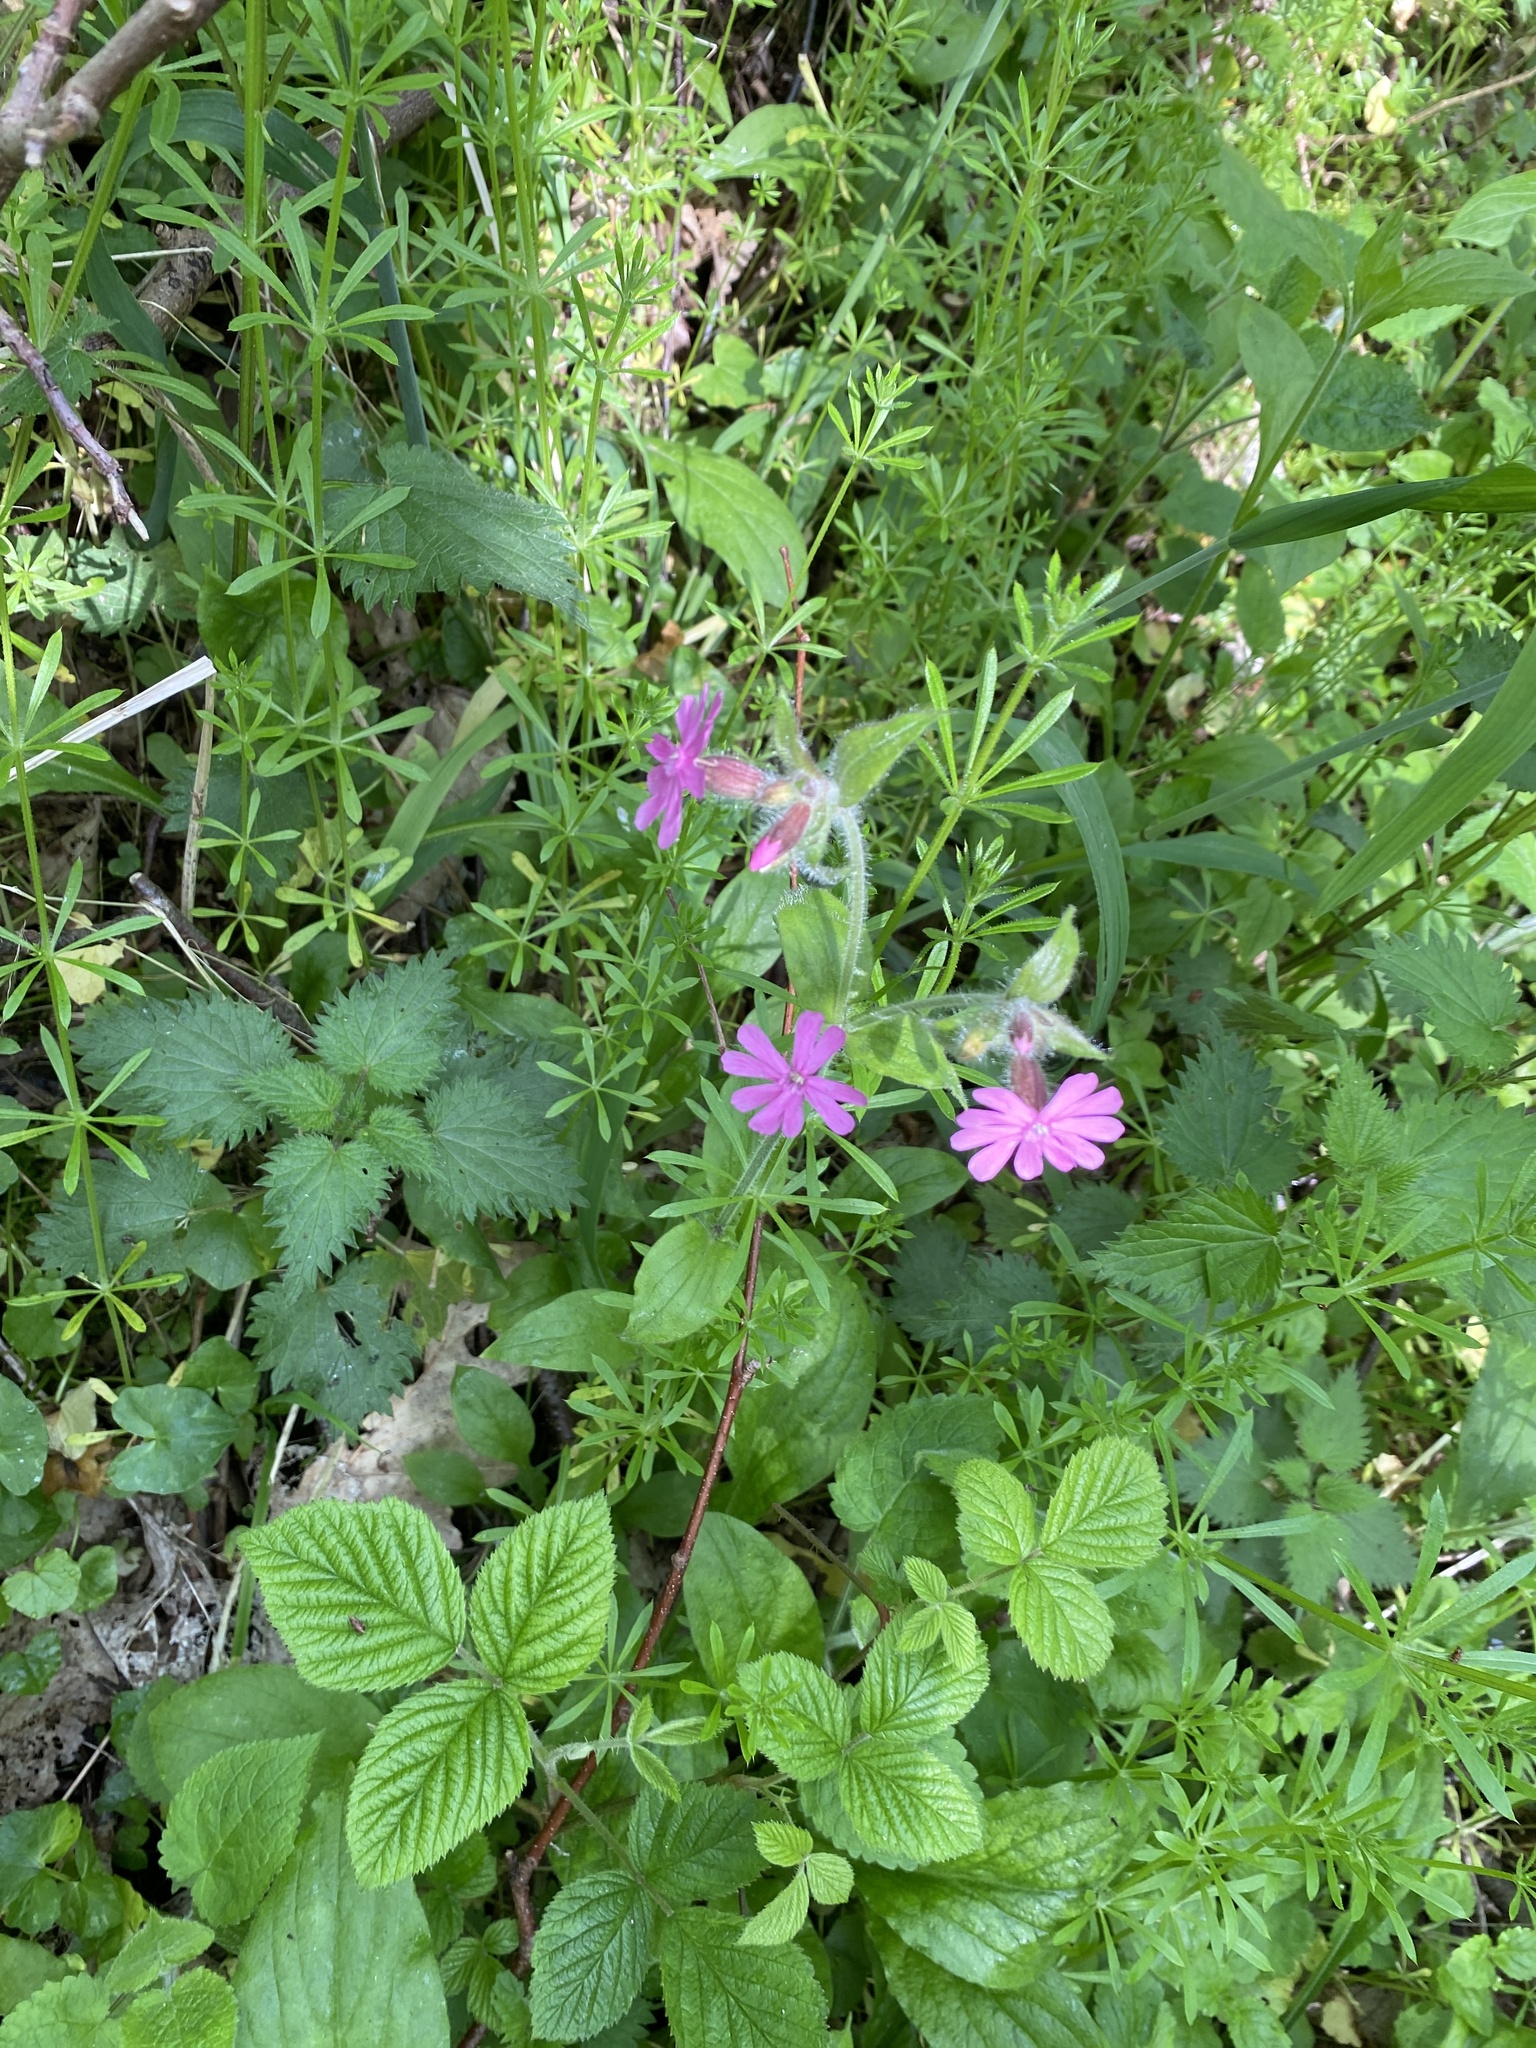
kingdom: Plantae
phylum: Tracheophyta
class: Magnoliopsida
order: Caryophyllales
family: Caryophyllaceae
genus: Silene
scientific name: Silene dioica
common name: Red campion
